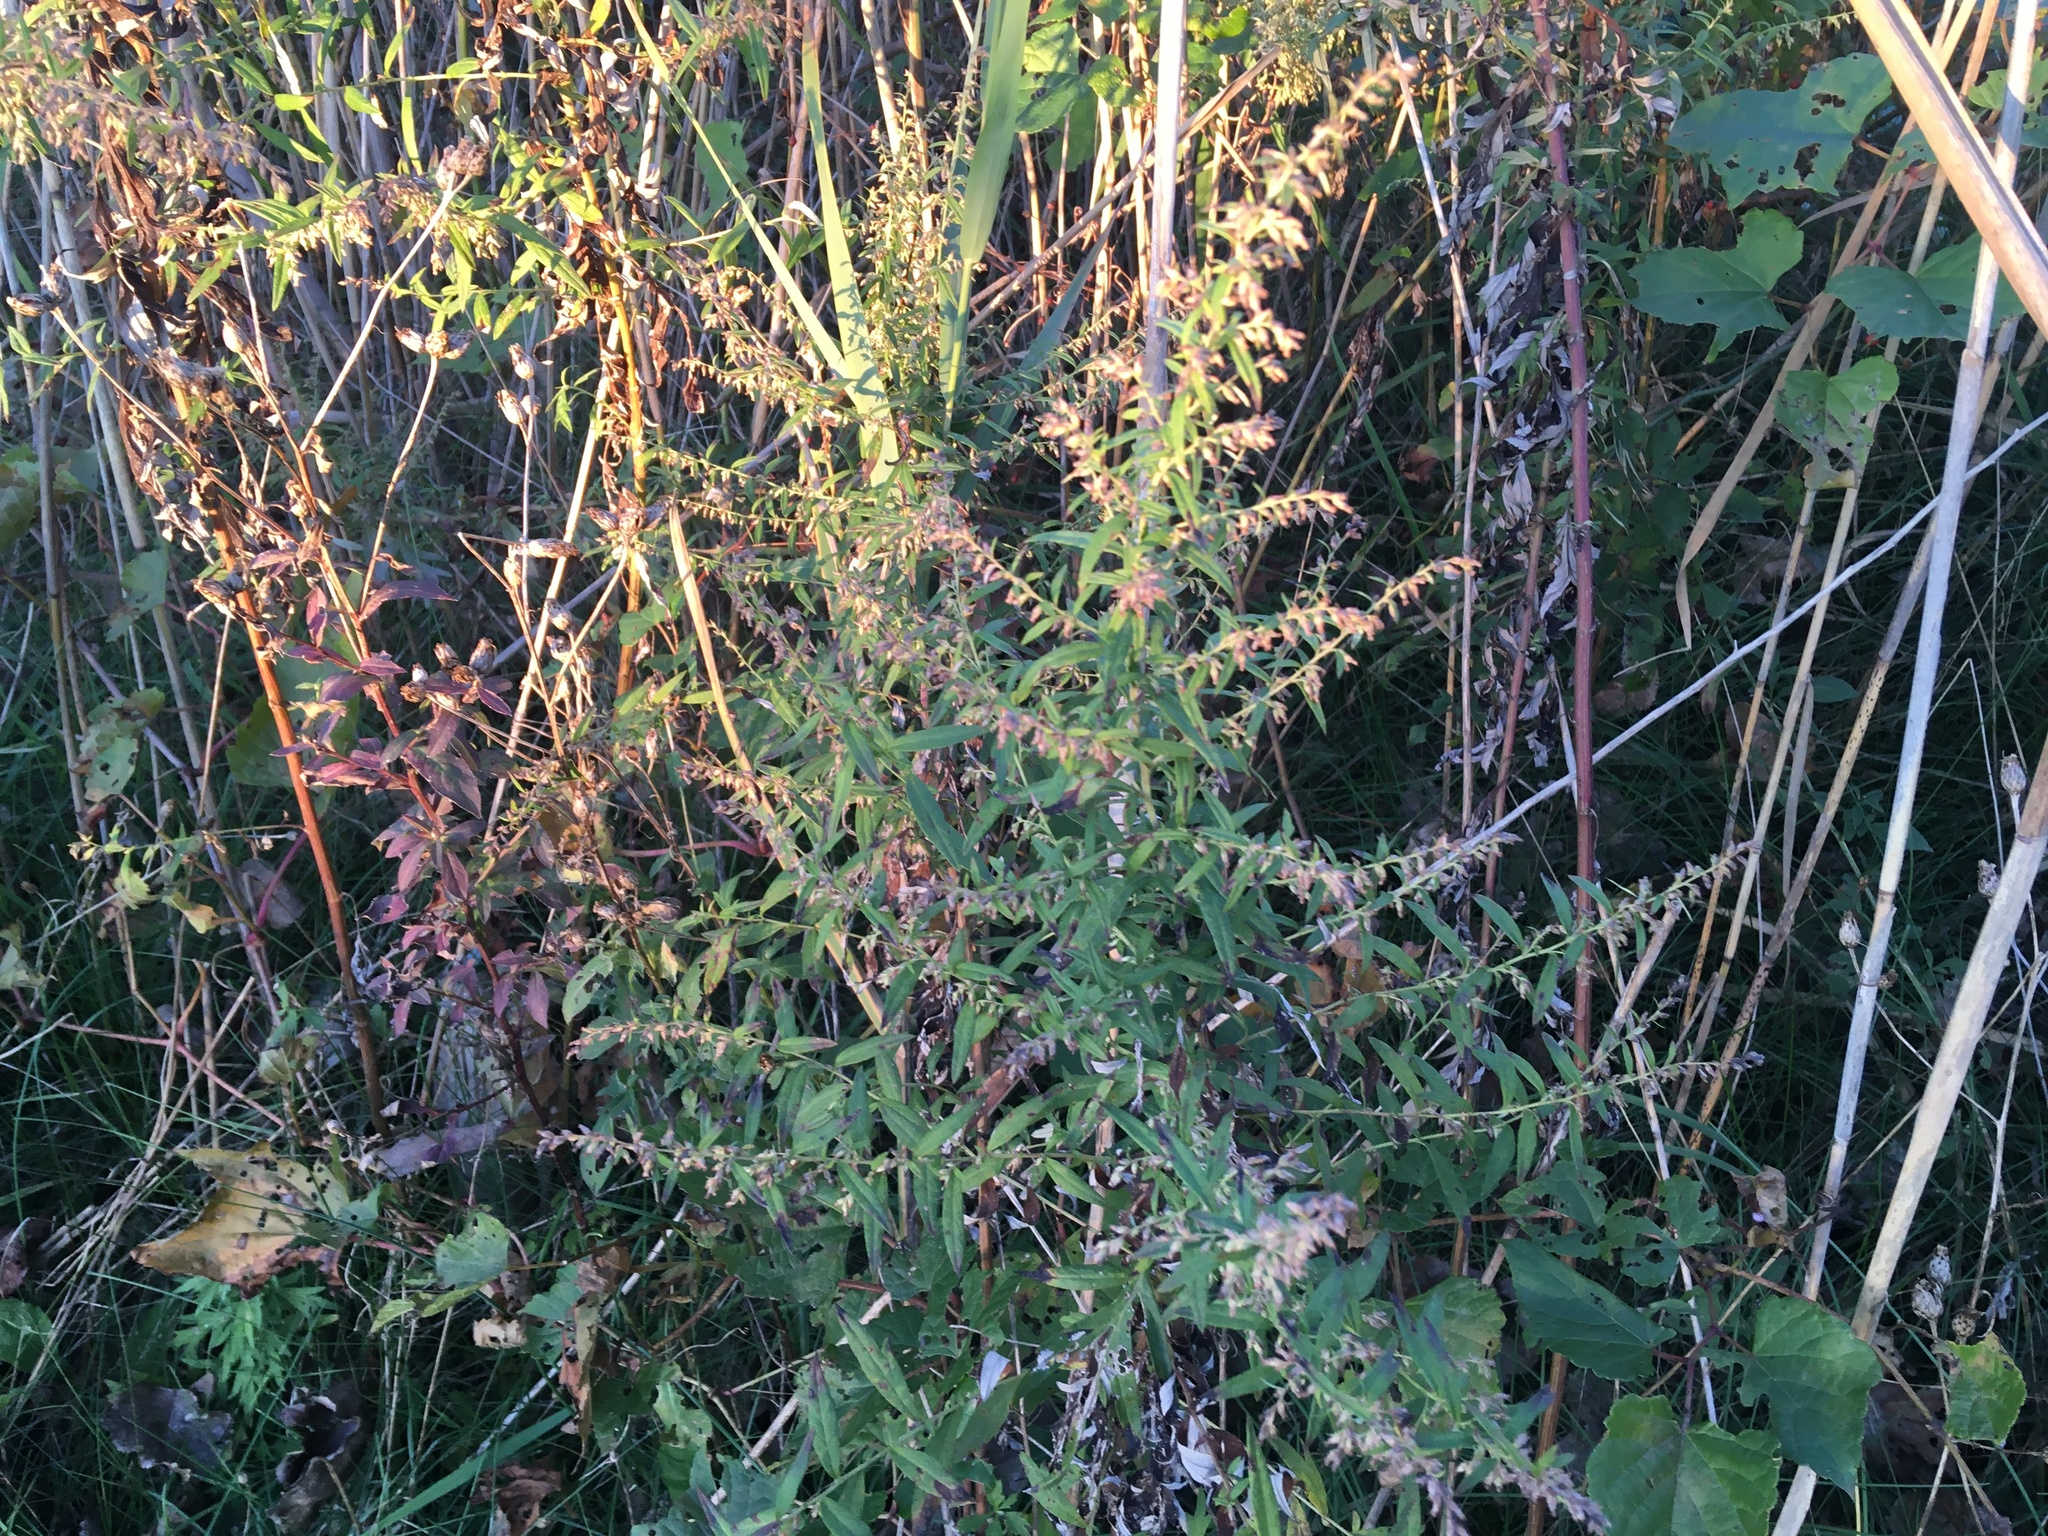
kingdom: Plantae
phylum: Tracheophyta
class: Magnoliopsida
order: Asterales
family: Asteraceae
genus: Artemisia
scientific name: Artemisia vulgaris
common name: Mugwort
